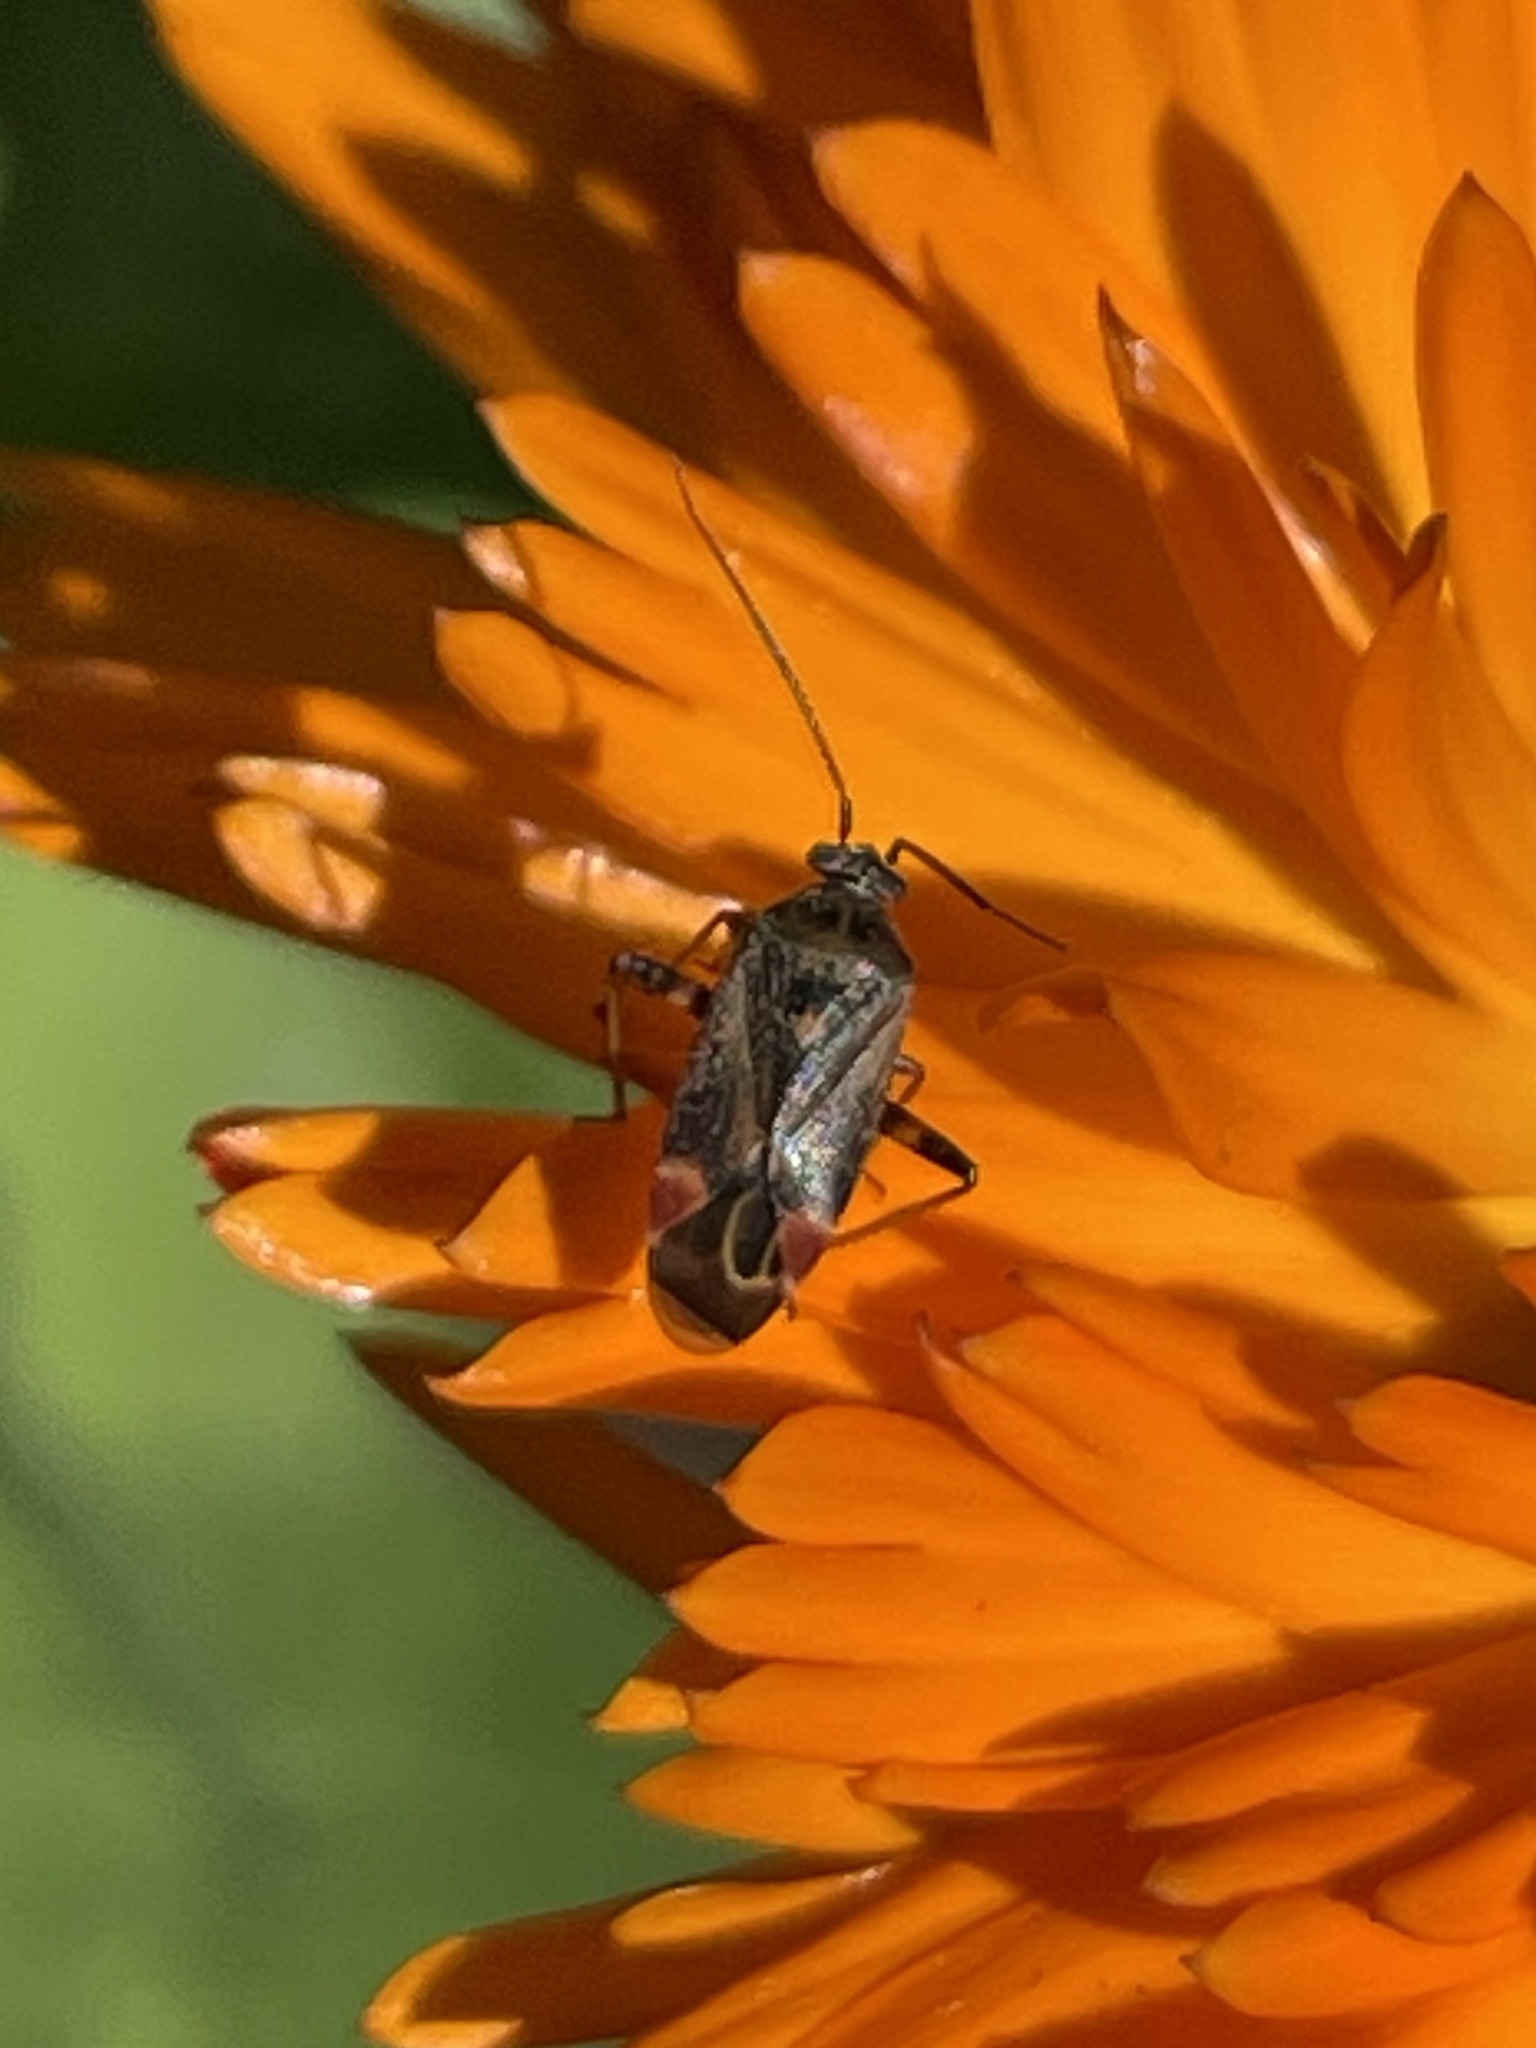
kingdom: Animalia
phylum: Arthropoda
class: Insecta
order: Hemiptera
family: Miridae
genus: Polymerus
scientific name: Polymerus basalis
